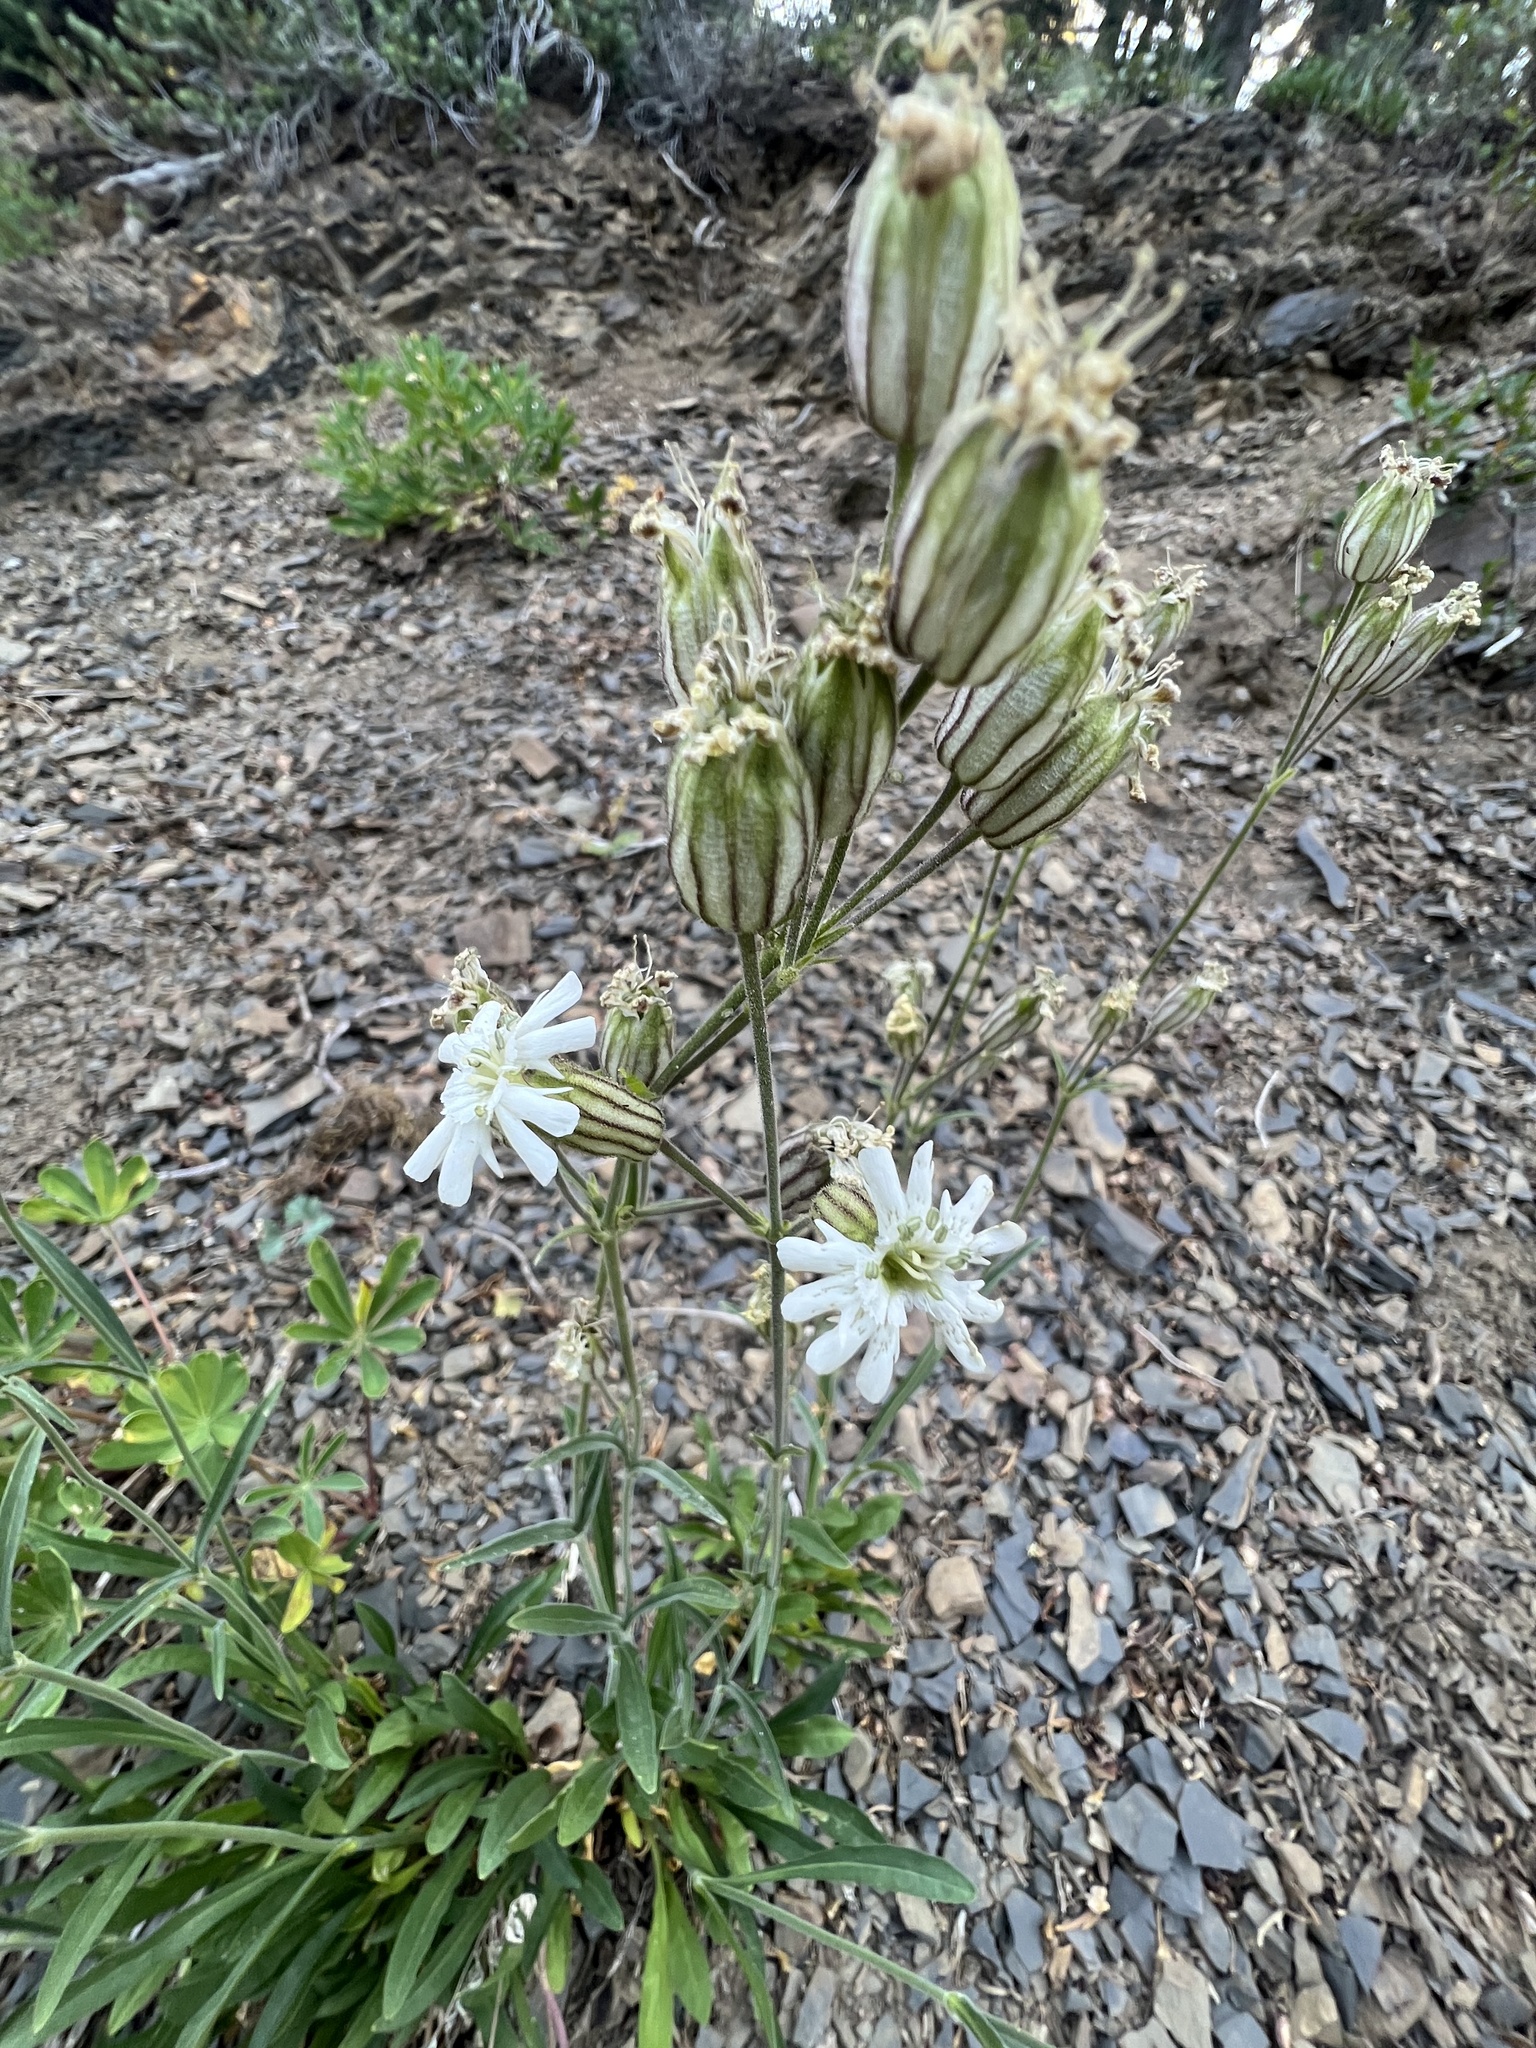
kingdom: Plantae
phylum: Tracheophyta
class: Magnoliopsida
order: Caryophyllales
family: Caryophyllaceae
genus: Silene
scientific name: Silene parryi
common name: Parry's campion
